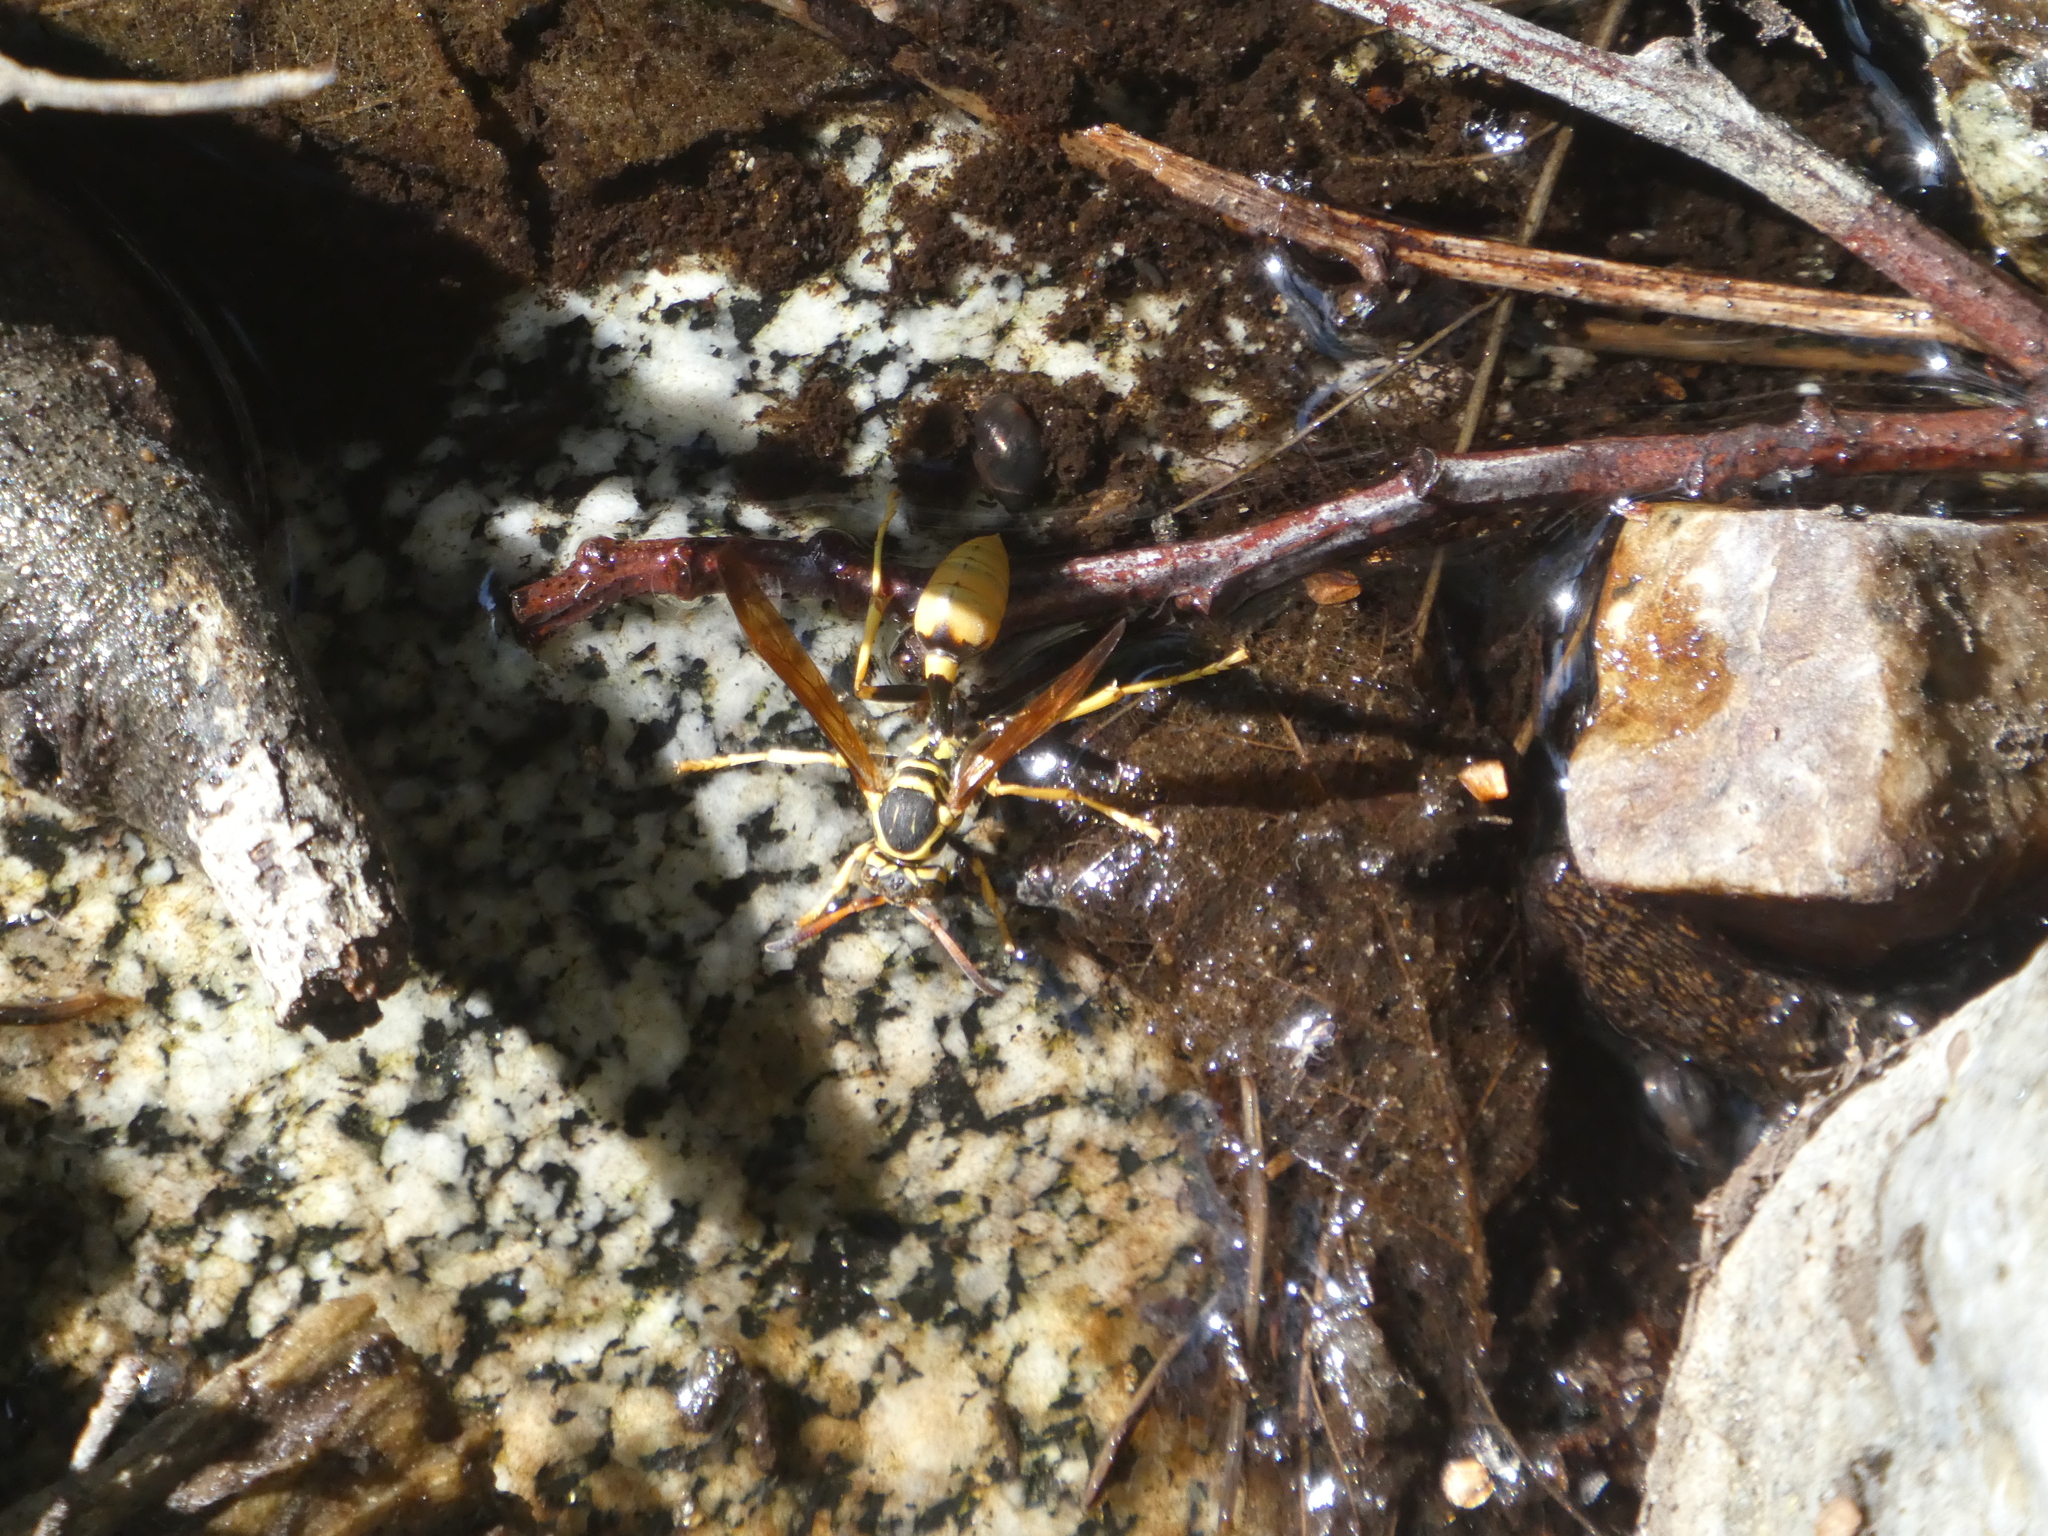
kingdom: Animalia
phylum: Arthropoda
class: Insecta
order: Hymenoptera
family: Vespidae
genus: Mischocyttarus
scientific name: Mischocyttarus flavitarsis
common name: Wasp
